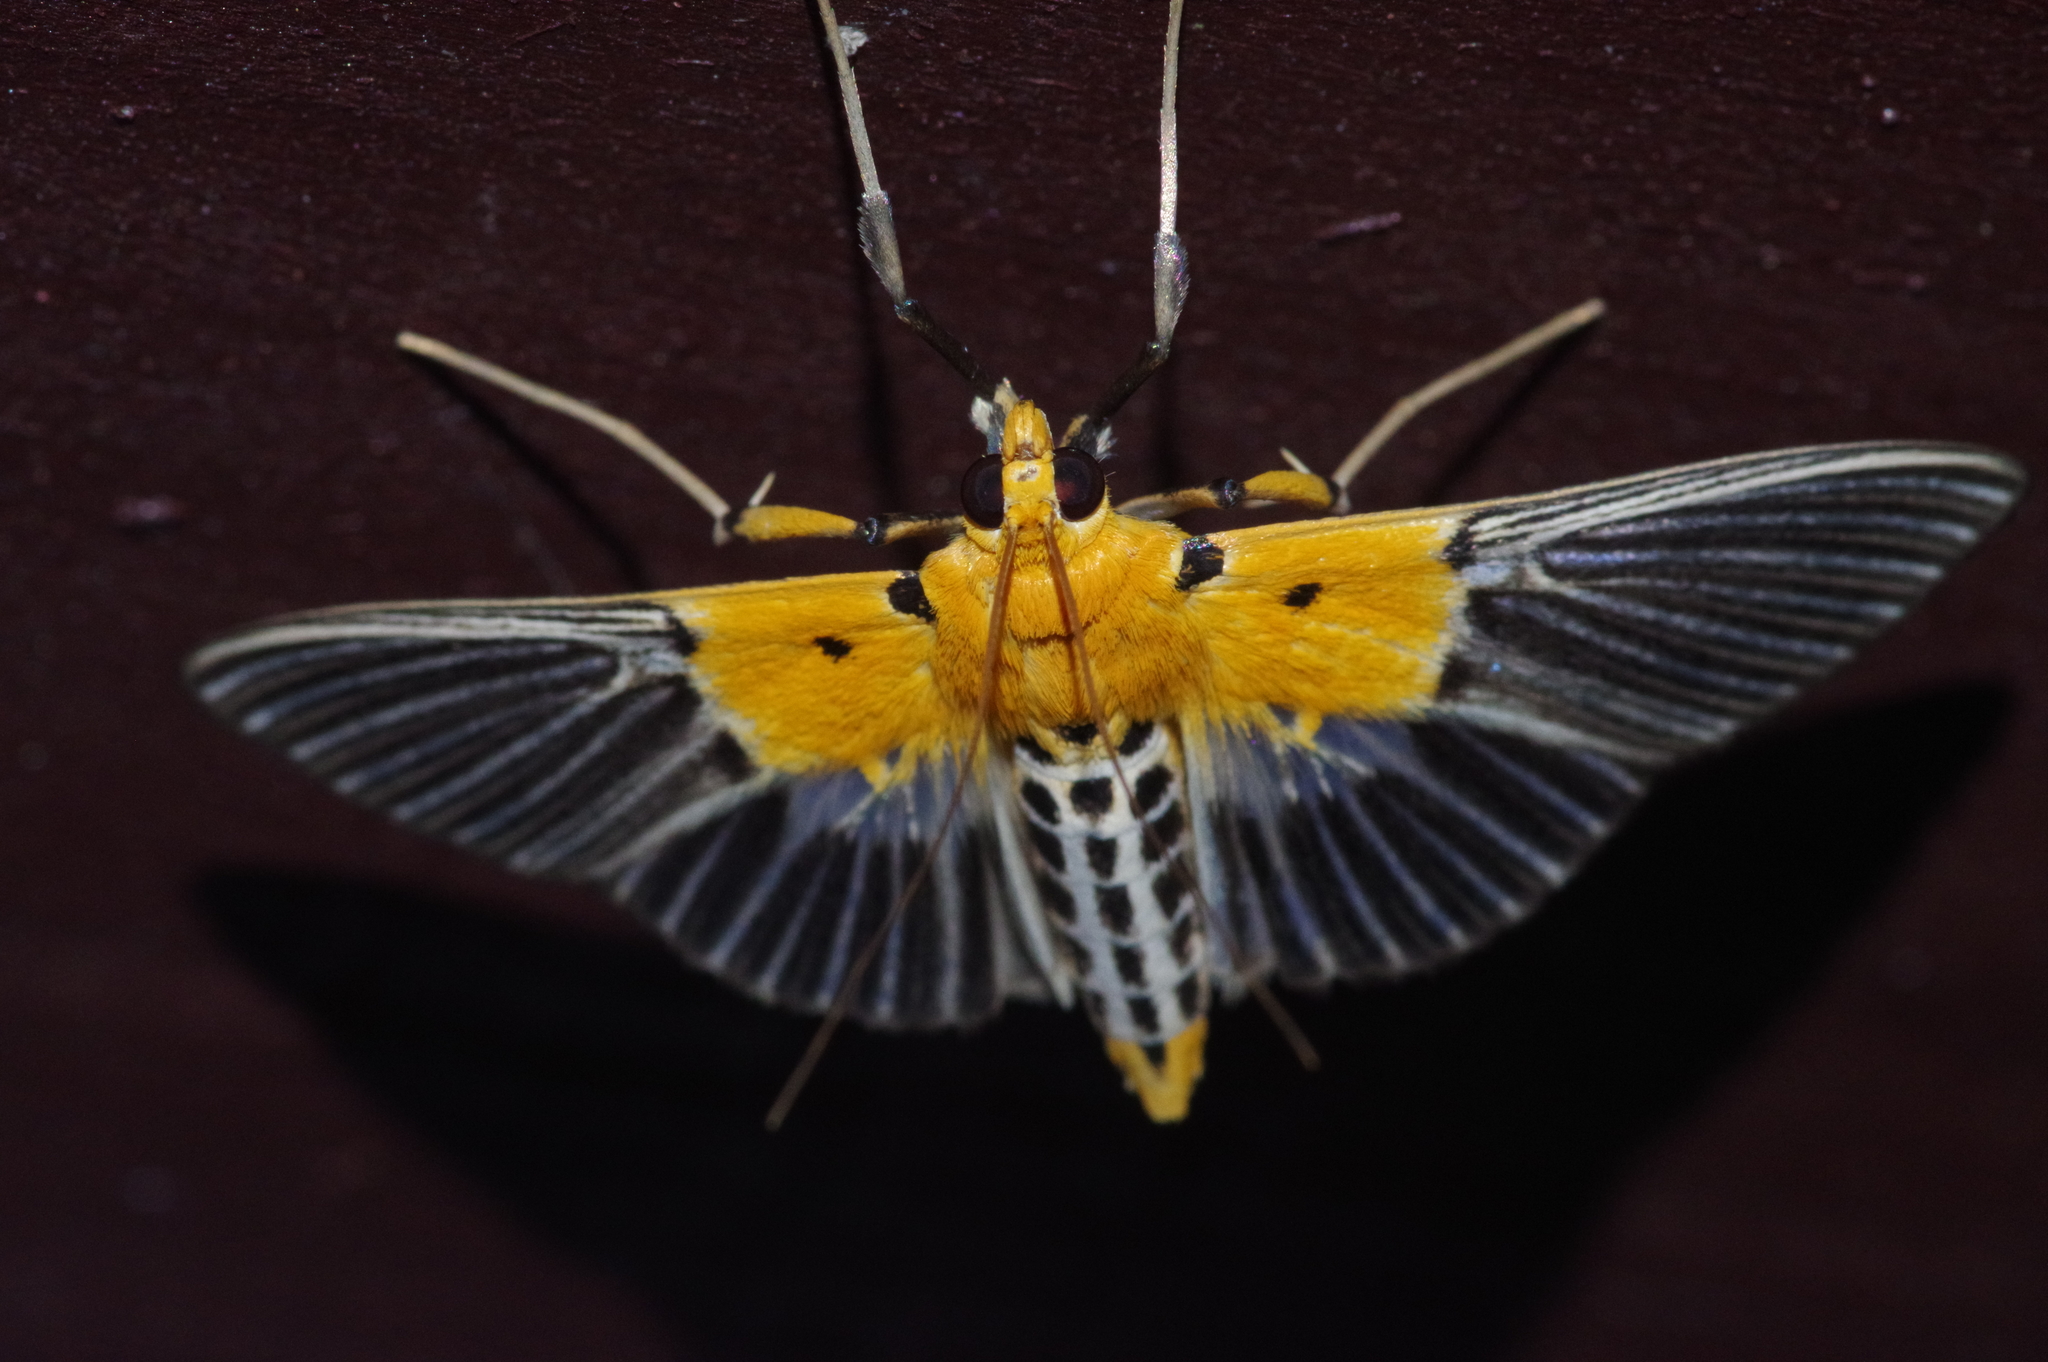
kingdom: Animalia
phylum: Arthropoda
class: Insecta
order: Lepidoptera
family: Crambidae
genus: Nevrina
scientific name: Nevrina procopia
